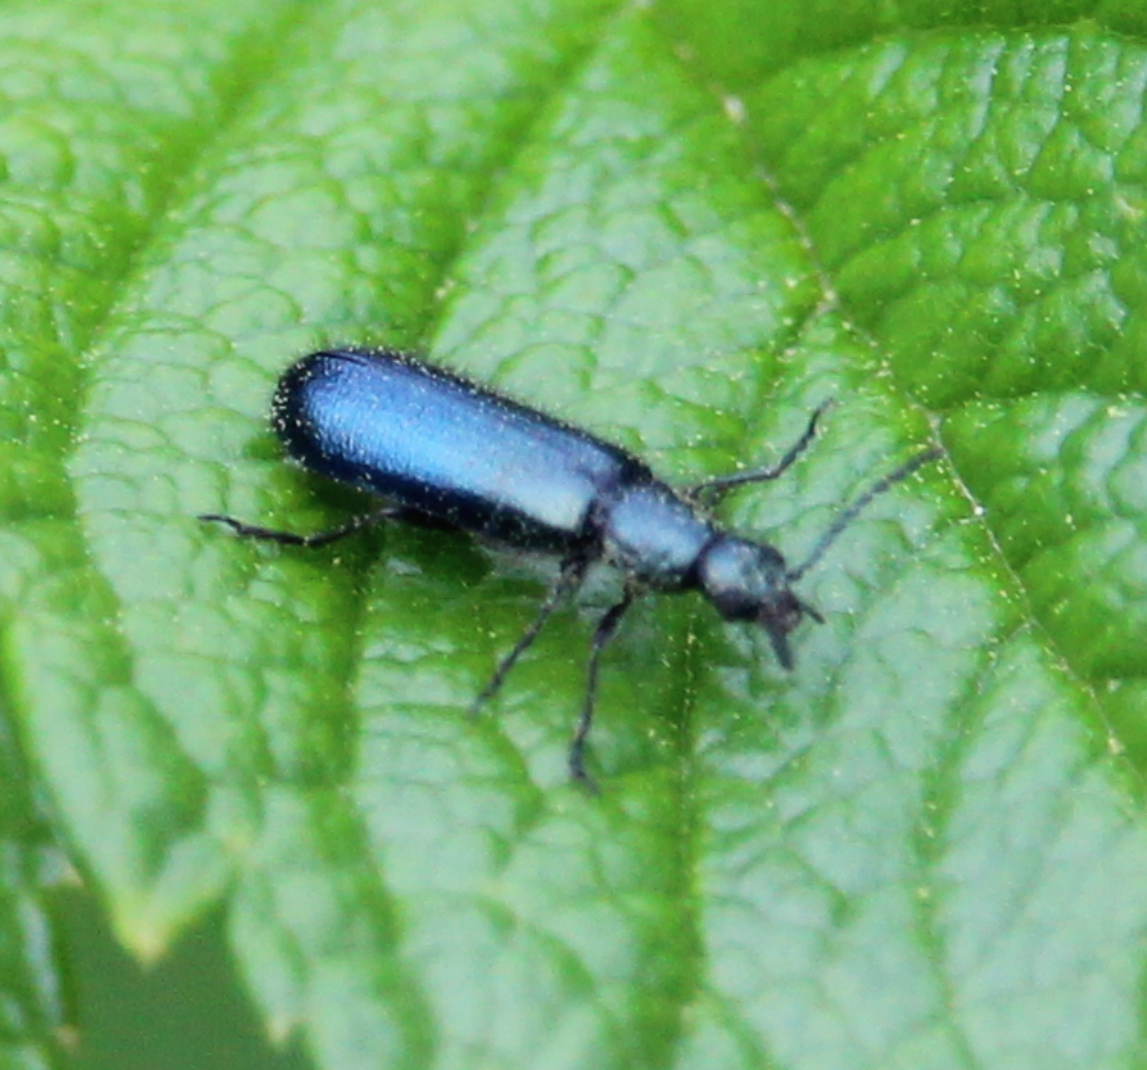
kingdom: Animalia
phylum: Arthropoda
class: Insecta
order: Coleoptera
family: Melyridae
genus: Dasytes
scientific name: Dasytes caeruleus
